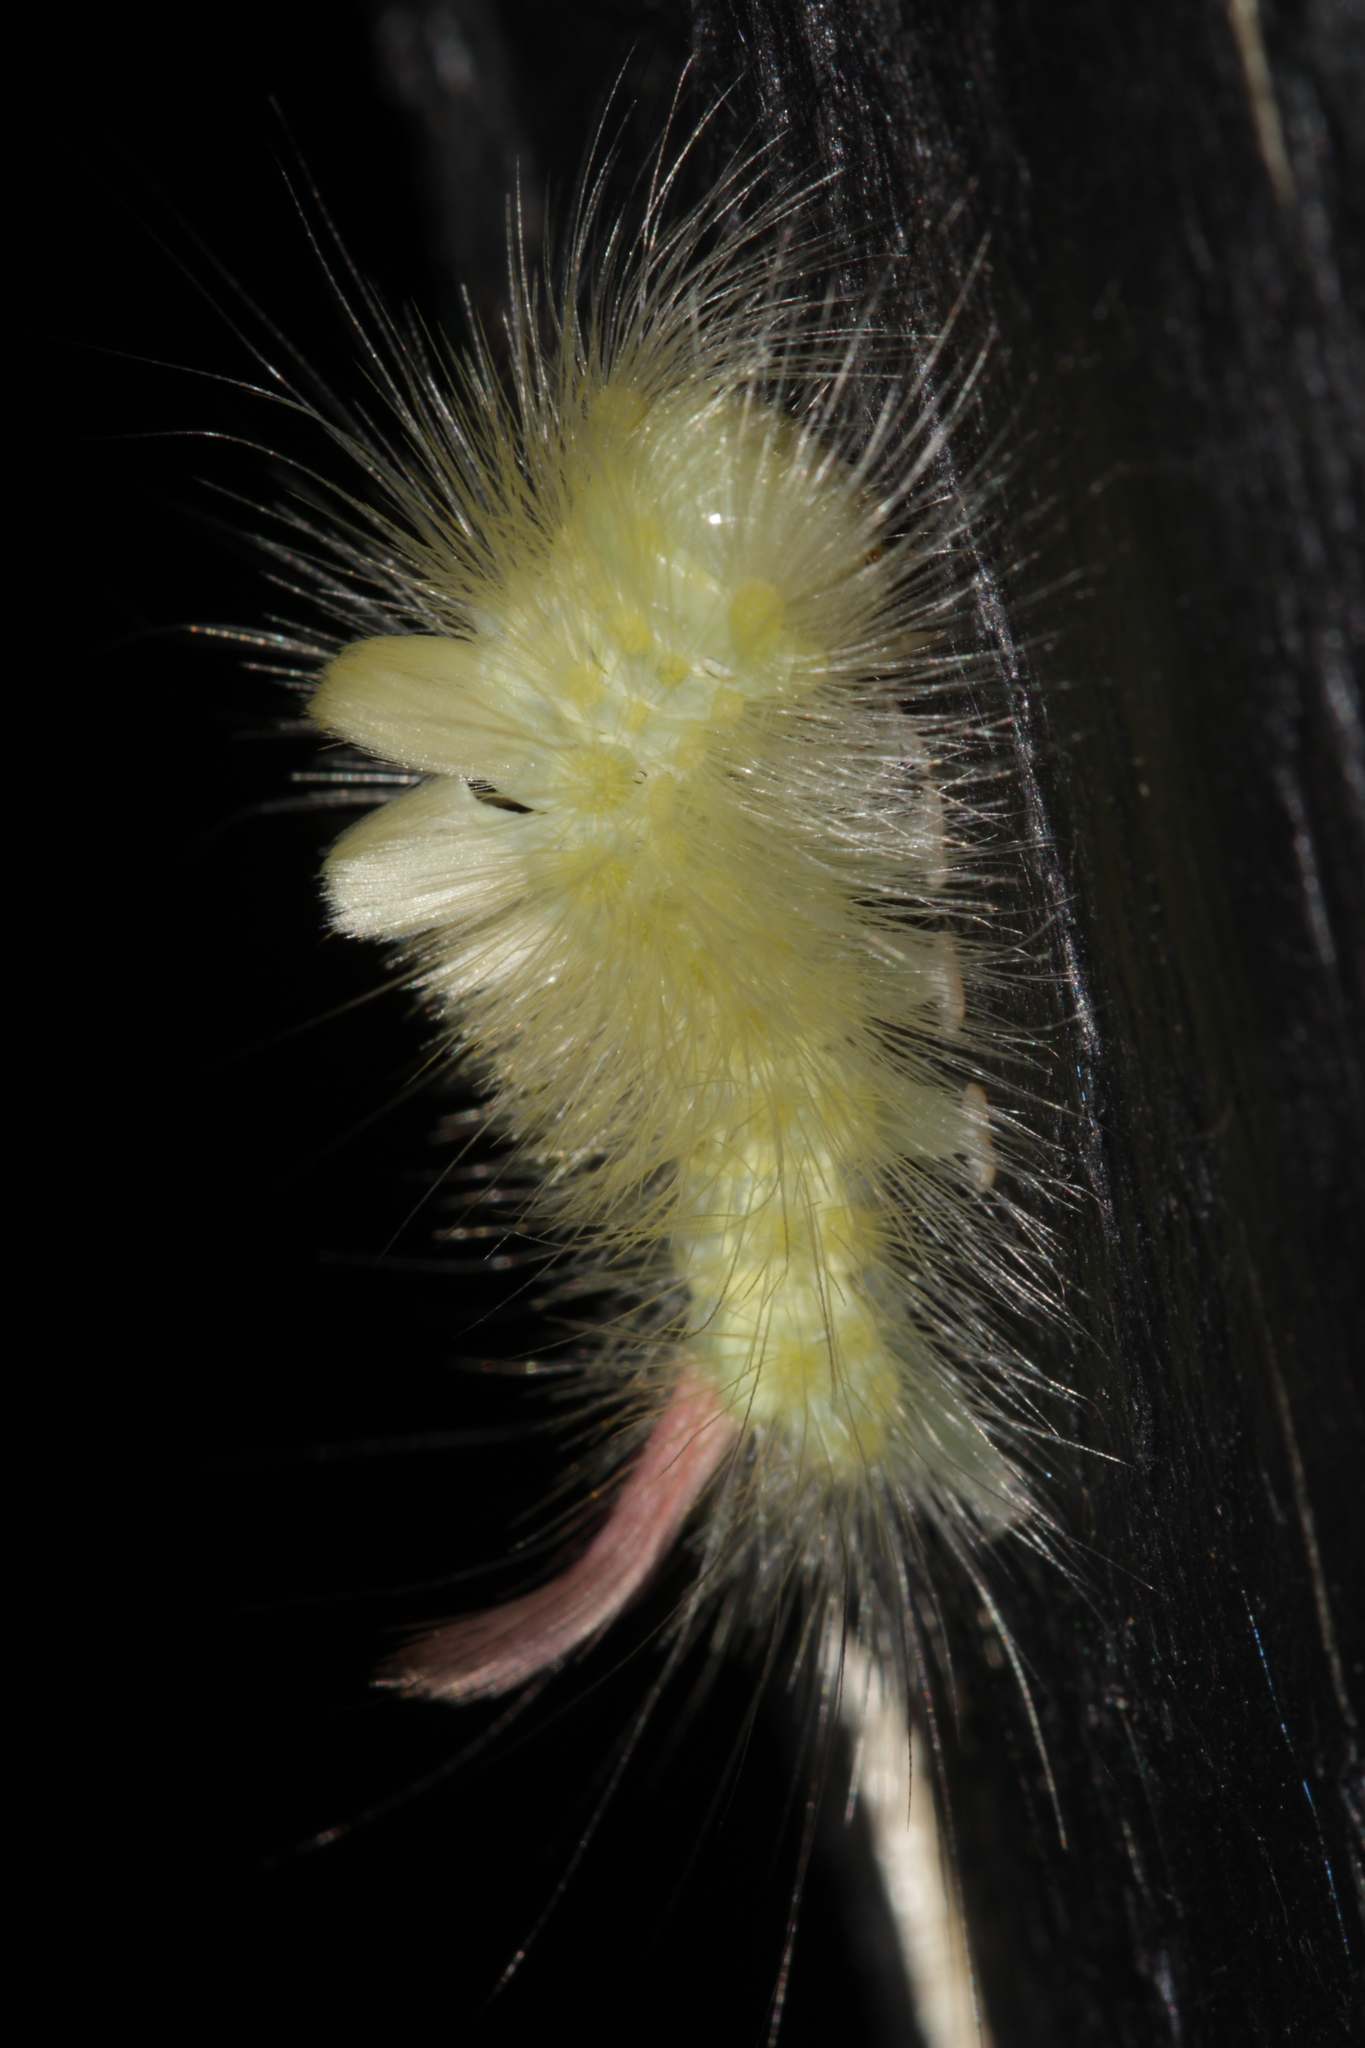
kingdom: Animalia
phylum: Arthropoda
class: Insecta
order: Lepidoptera
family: Erebidae
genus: Calliteara
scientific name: Calliteara pudibunda
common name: Pale tussock
